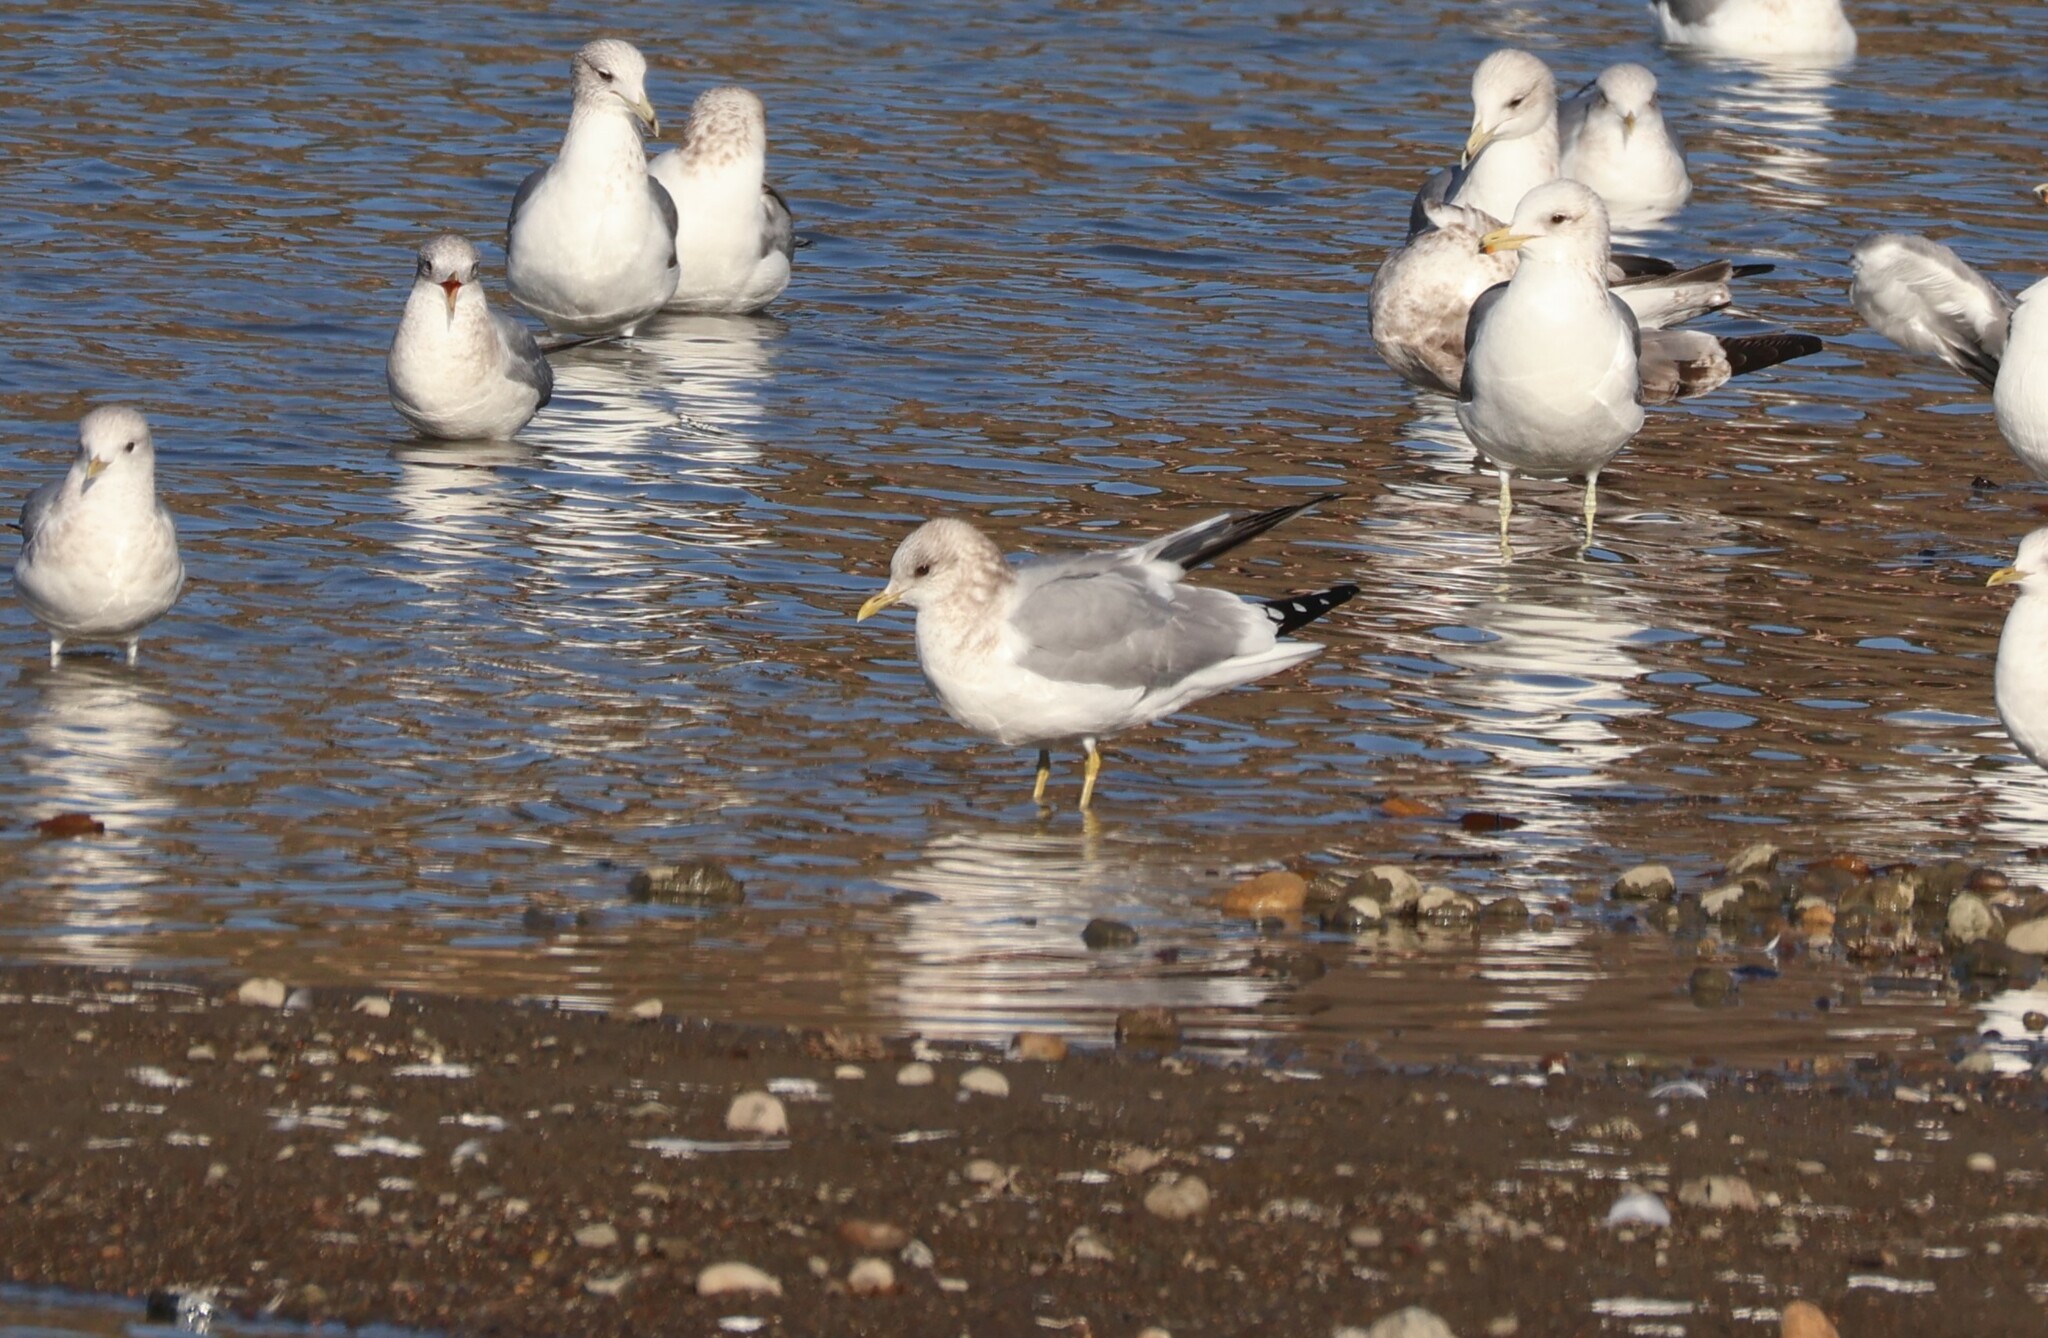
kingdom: Animalia
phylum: Chordata
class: Aves
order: Charadriiformes
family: Laridae
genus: Larus
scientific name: Larus brachyrhynchus
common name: Short-billed gull
